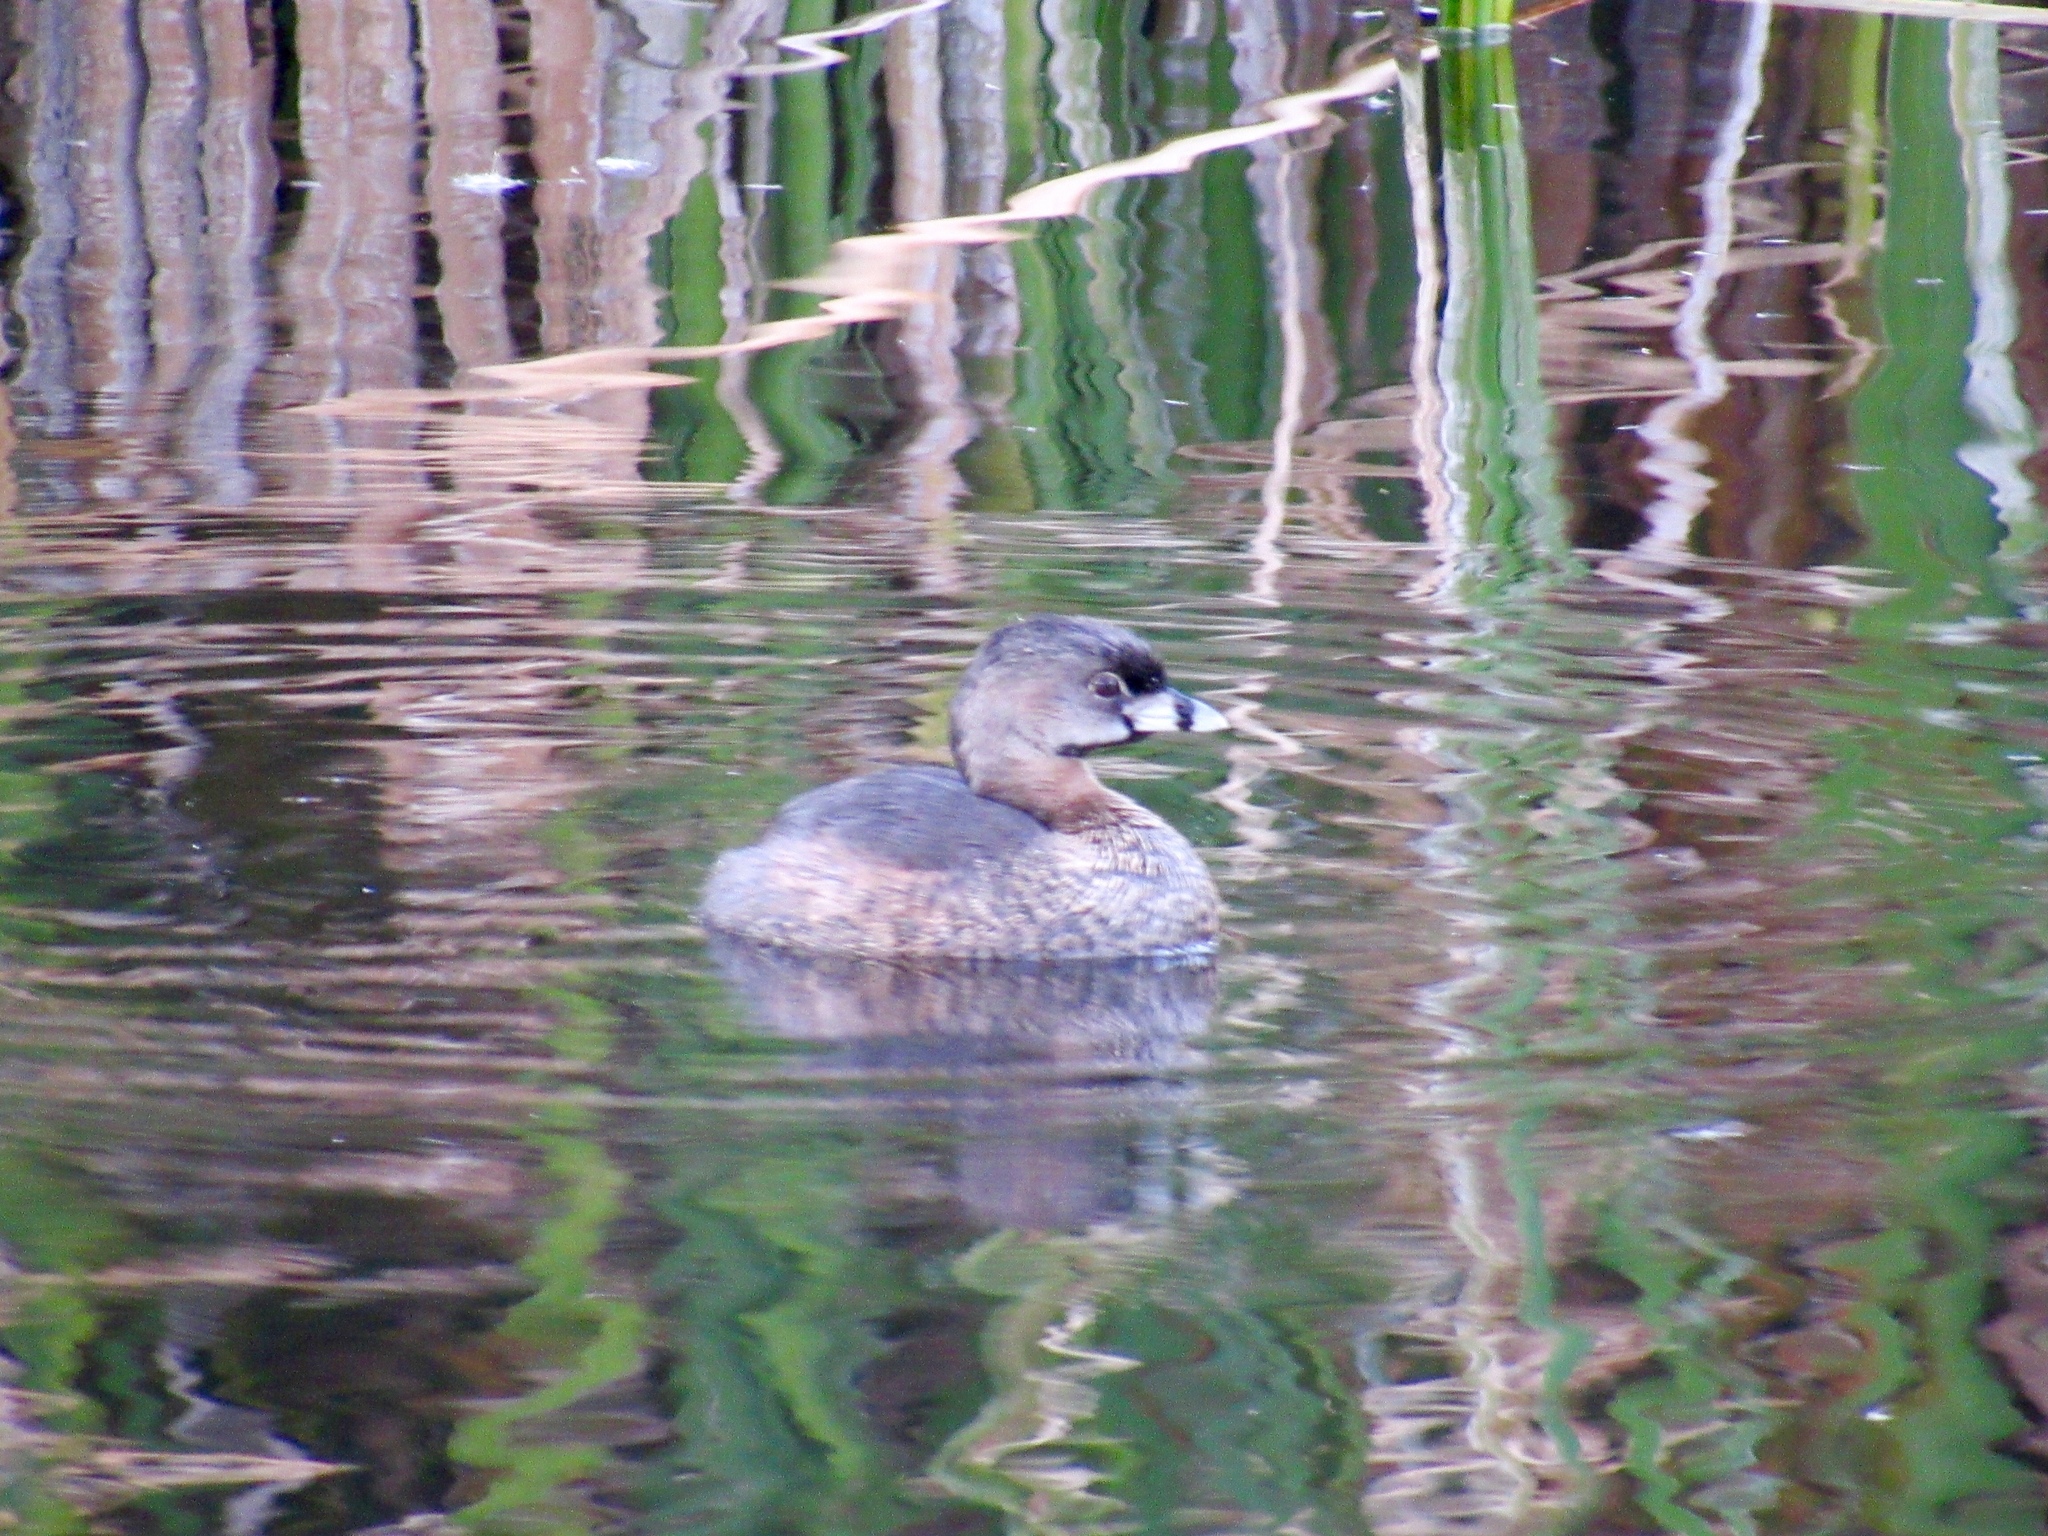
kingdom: Animalia
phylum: Chordata
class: Aves
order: Podicipediformes
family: Podicipedidae
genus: Podilymbus
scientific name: Podilymbus podiceps
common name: Pied-billed grebe
